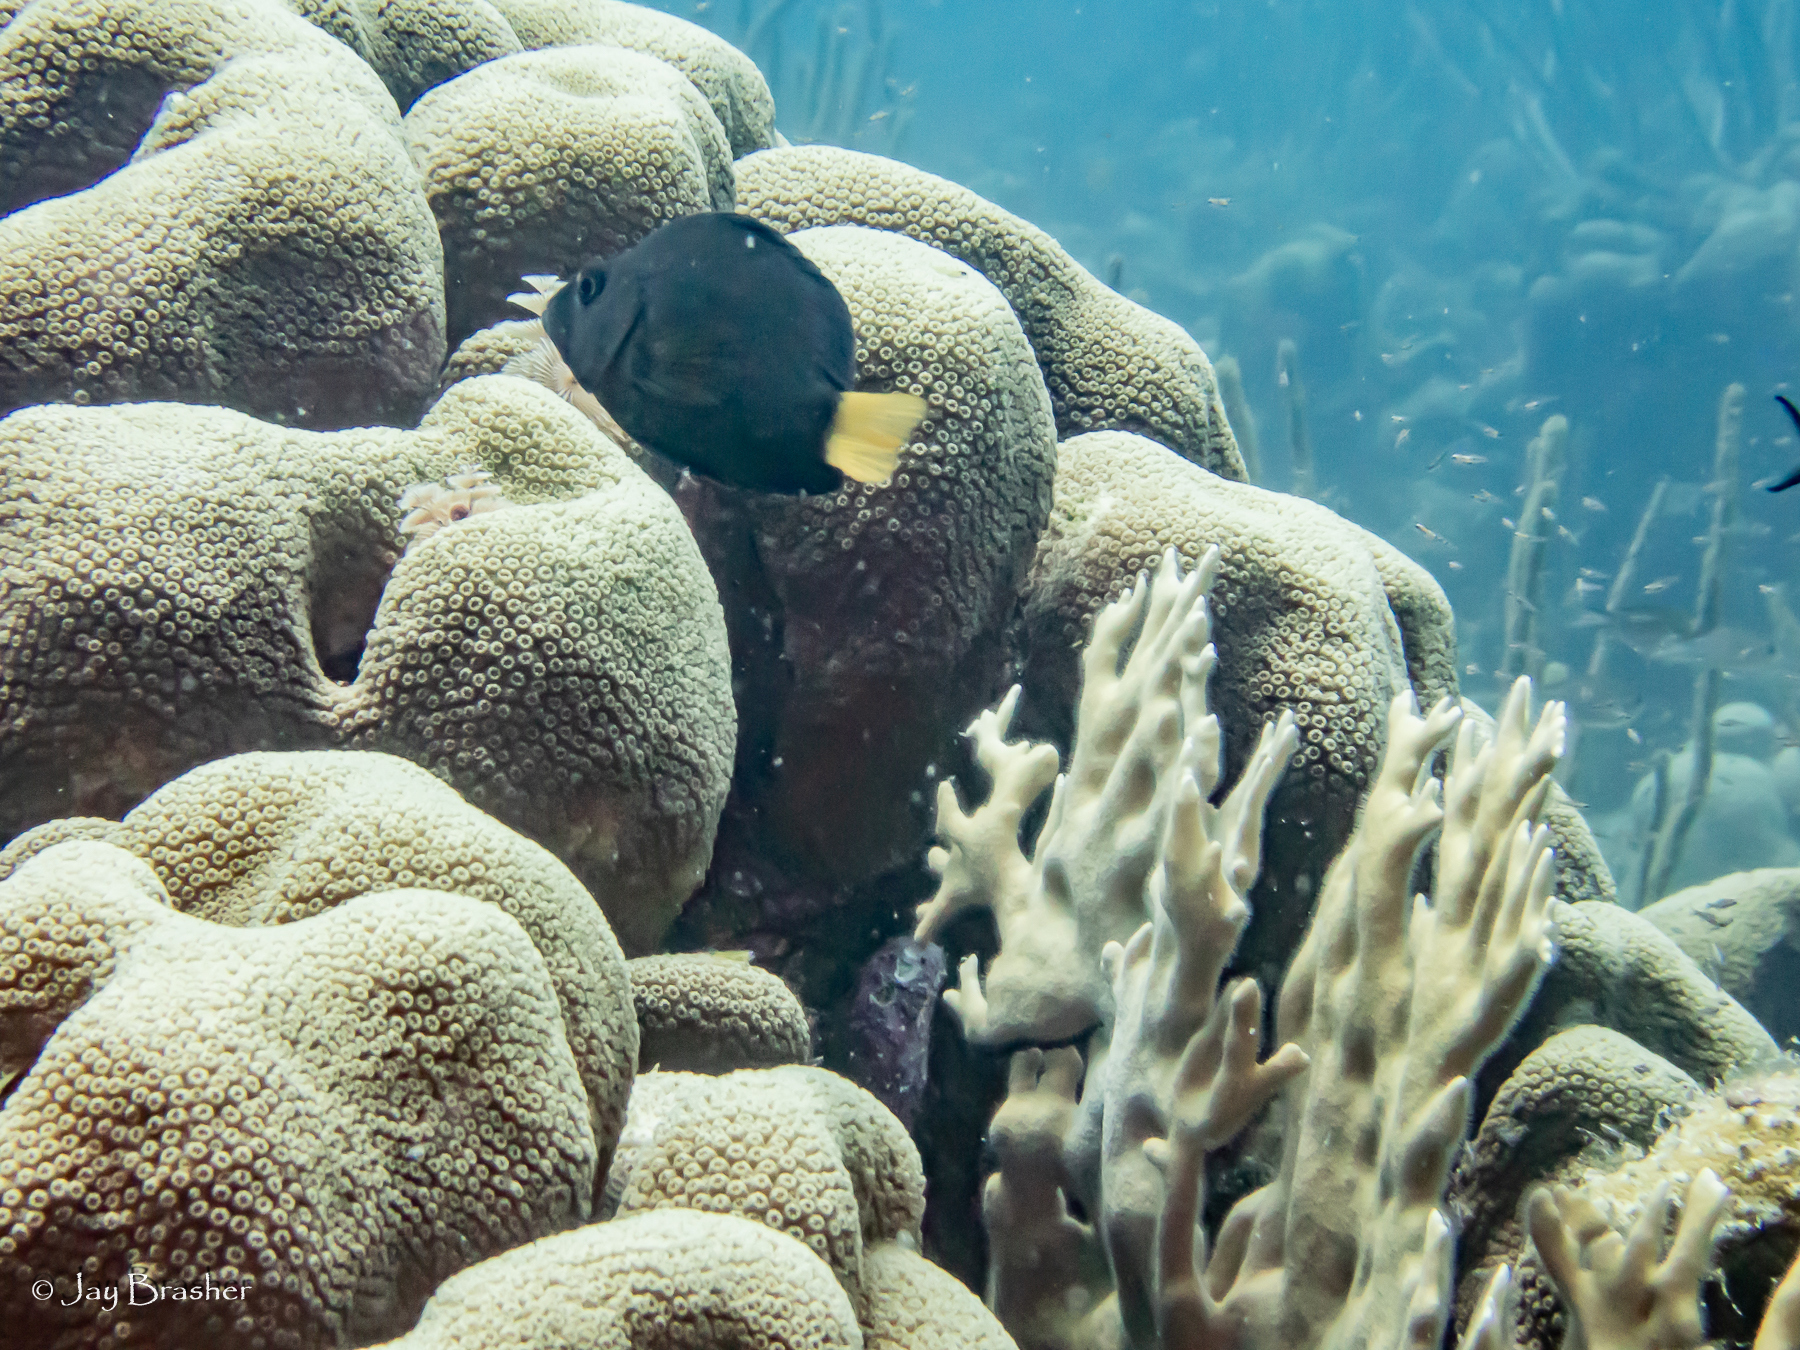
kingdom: Animalia
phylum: Chordata
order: Perciformes
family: Serranidae
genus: Hypoplectrus
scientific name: Hypoplectrus chlorurus
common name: Yellowtail hamlet
